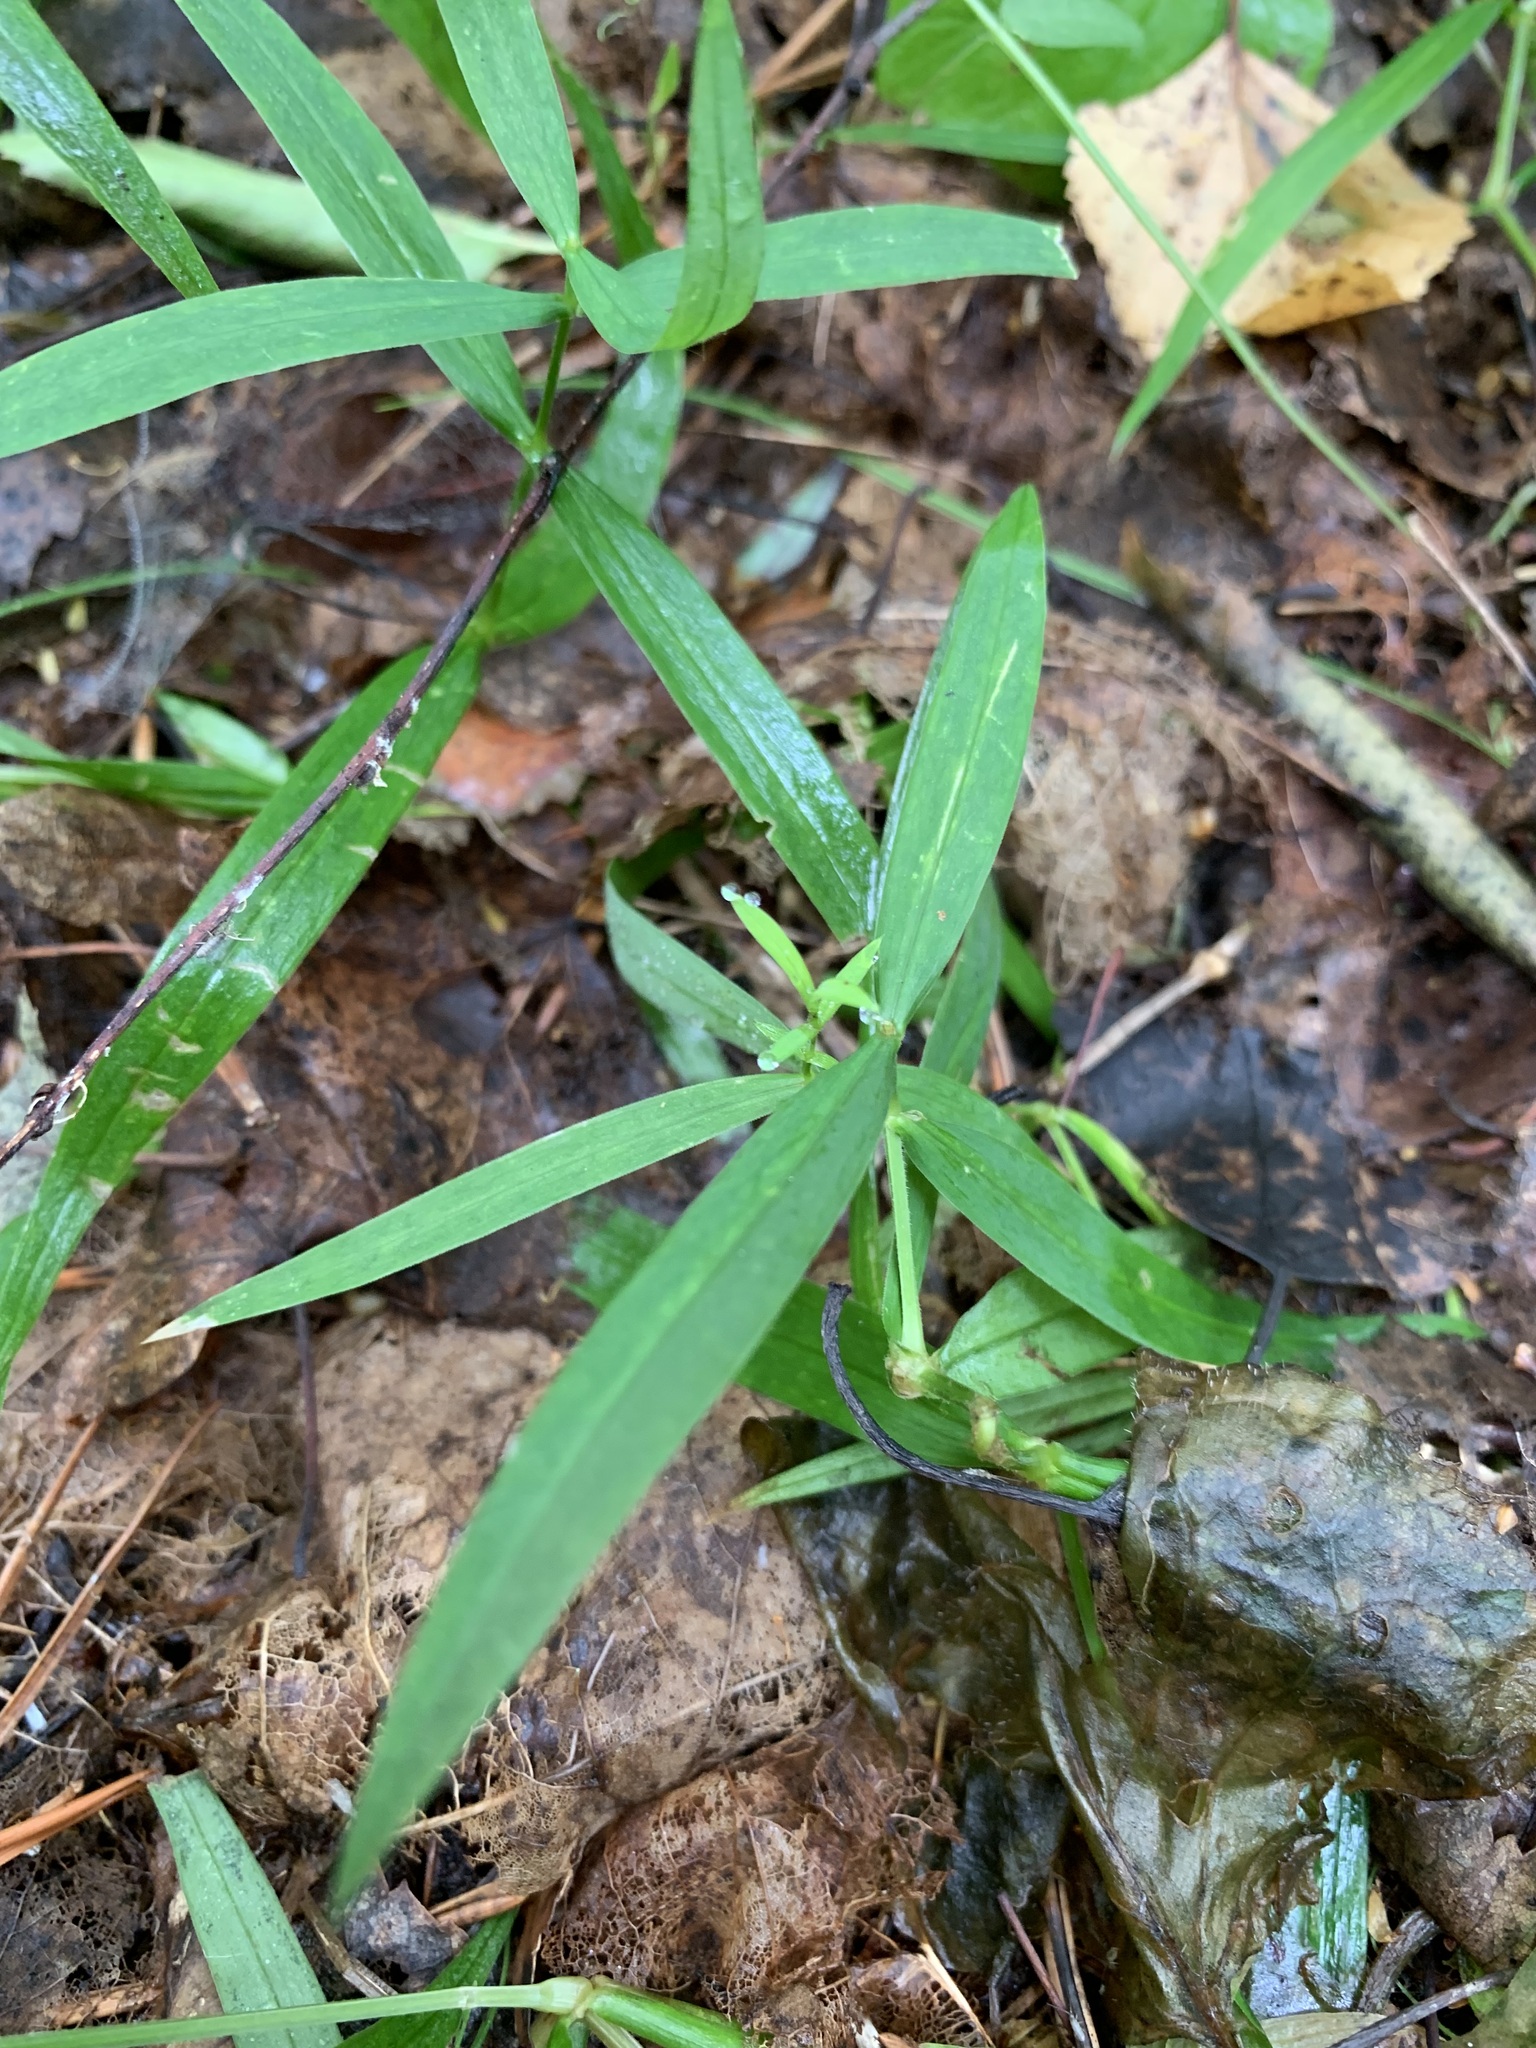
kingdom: Plantae
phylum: Tracheophyta
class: Magnoliopsida
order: Caryophyllales
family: Caryophyllaceae
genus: Rabelera
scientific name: Rabelera holostea
